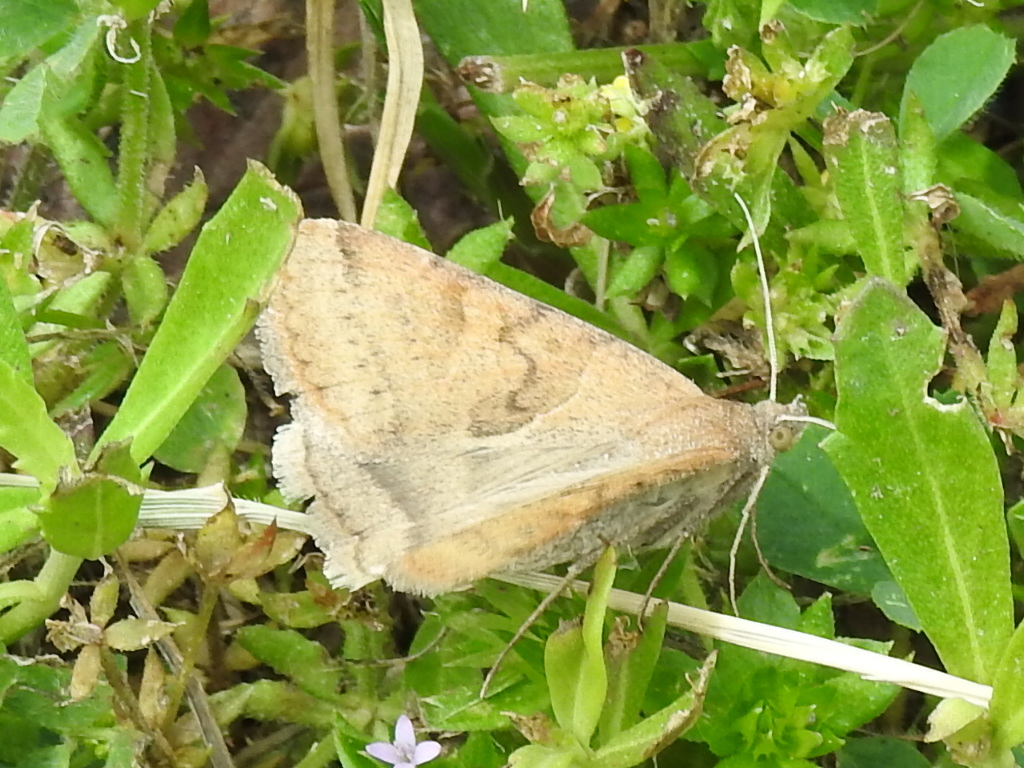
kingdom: Animalia
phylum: Arthropoda
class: Insecta
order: Lepidoptera
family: Erebidae
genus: Caenurgina
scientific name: Caenurgina erechtea
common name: Forage looper moth
